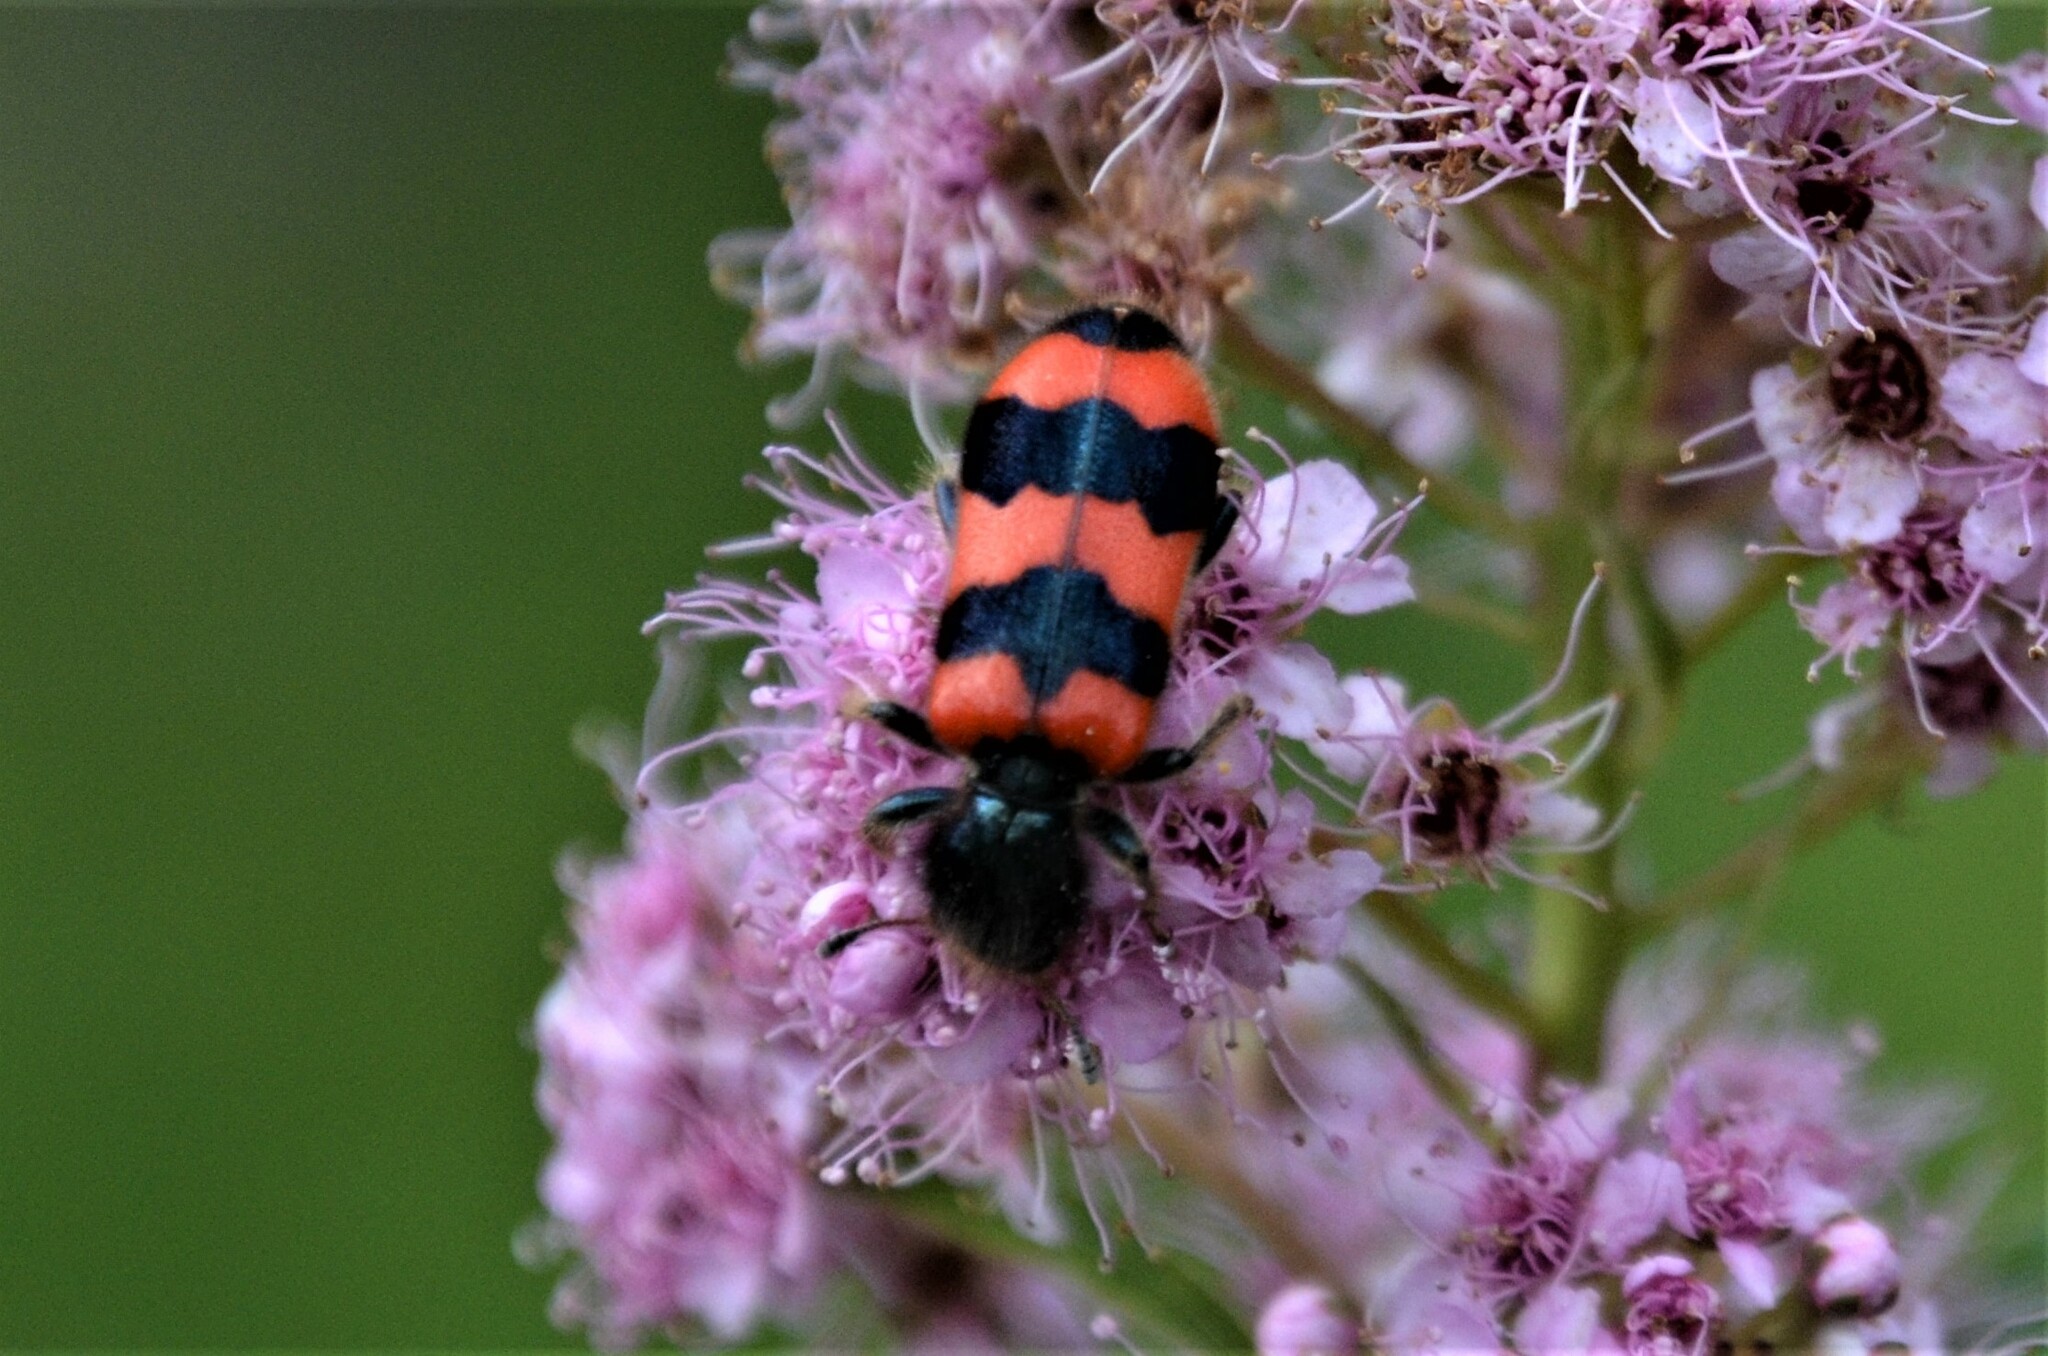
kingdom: Animalia
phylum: Arthropoda
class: Insecta
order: Coleoptera
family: Cleridae
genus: Trichodes
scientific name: Trichodes apiarius
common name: Bee-eating beetle
